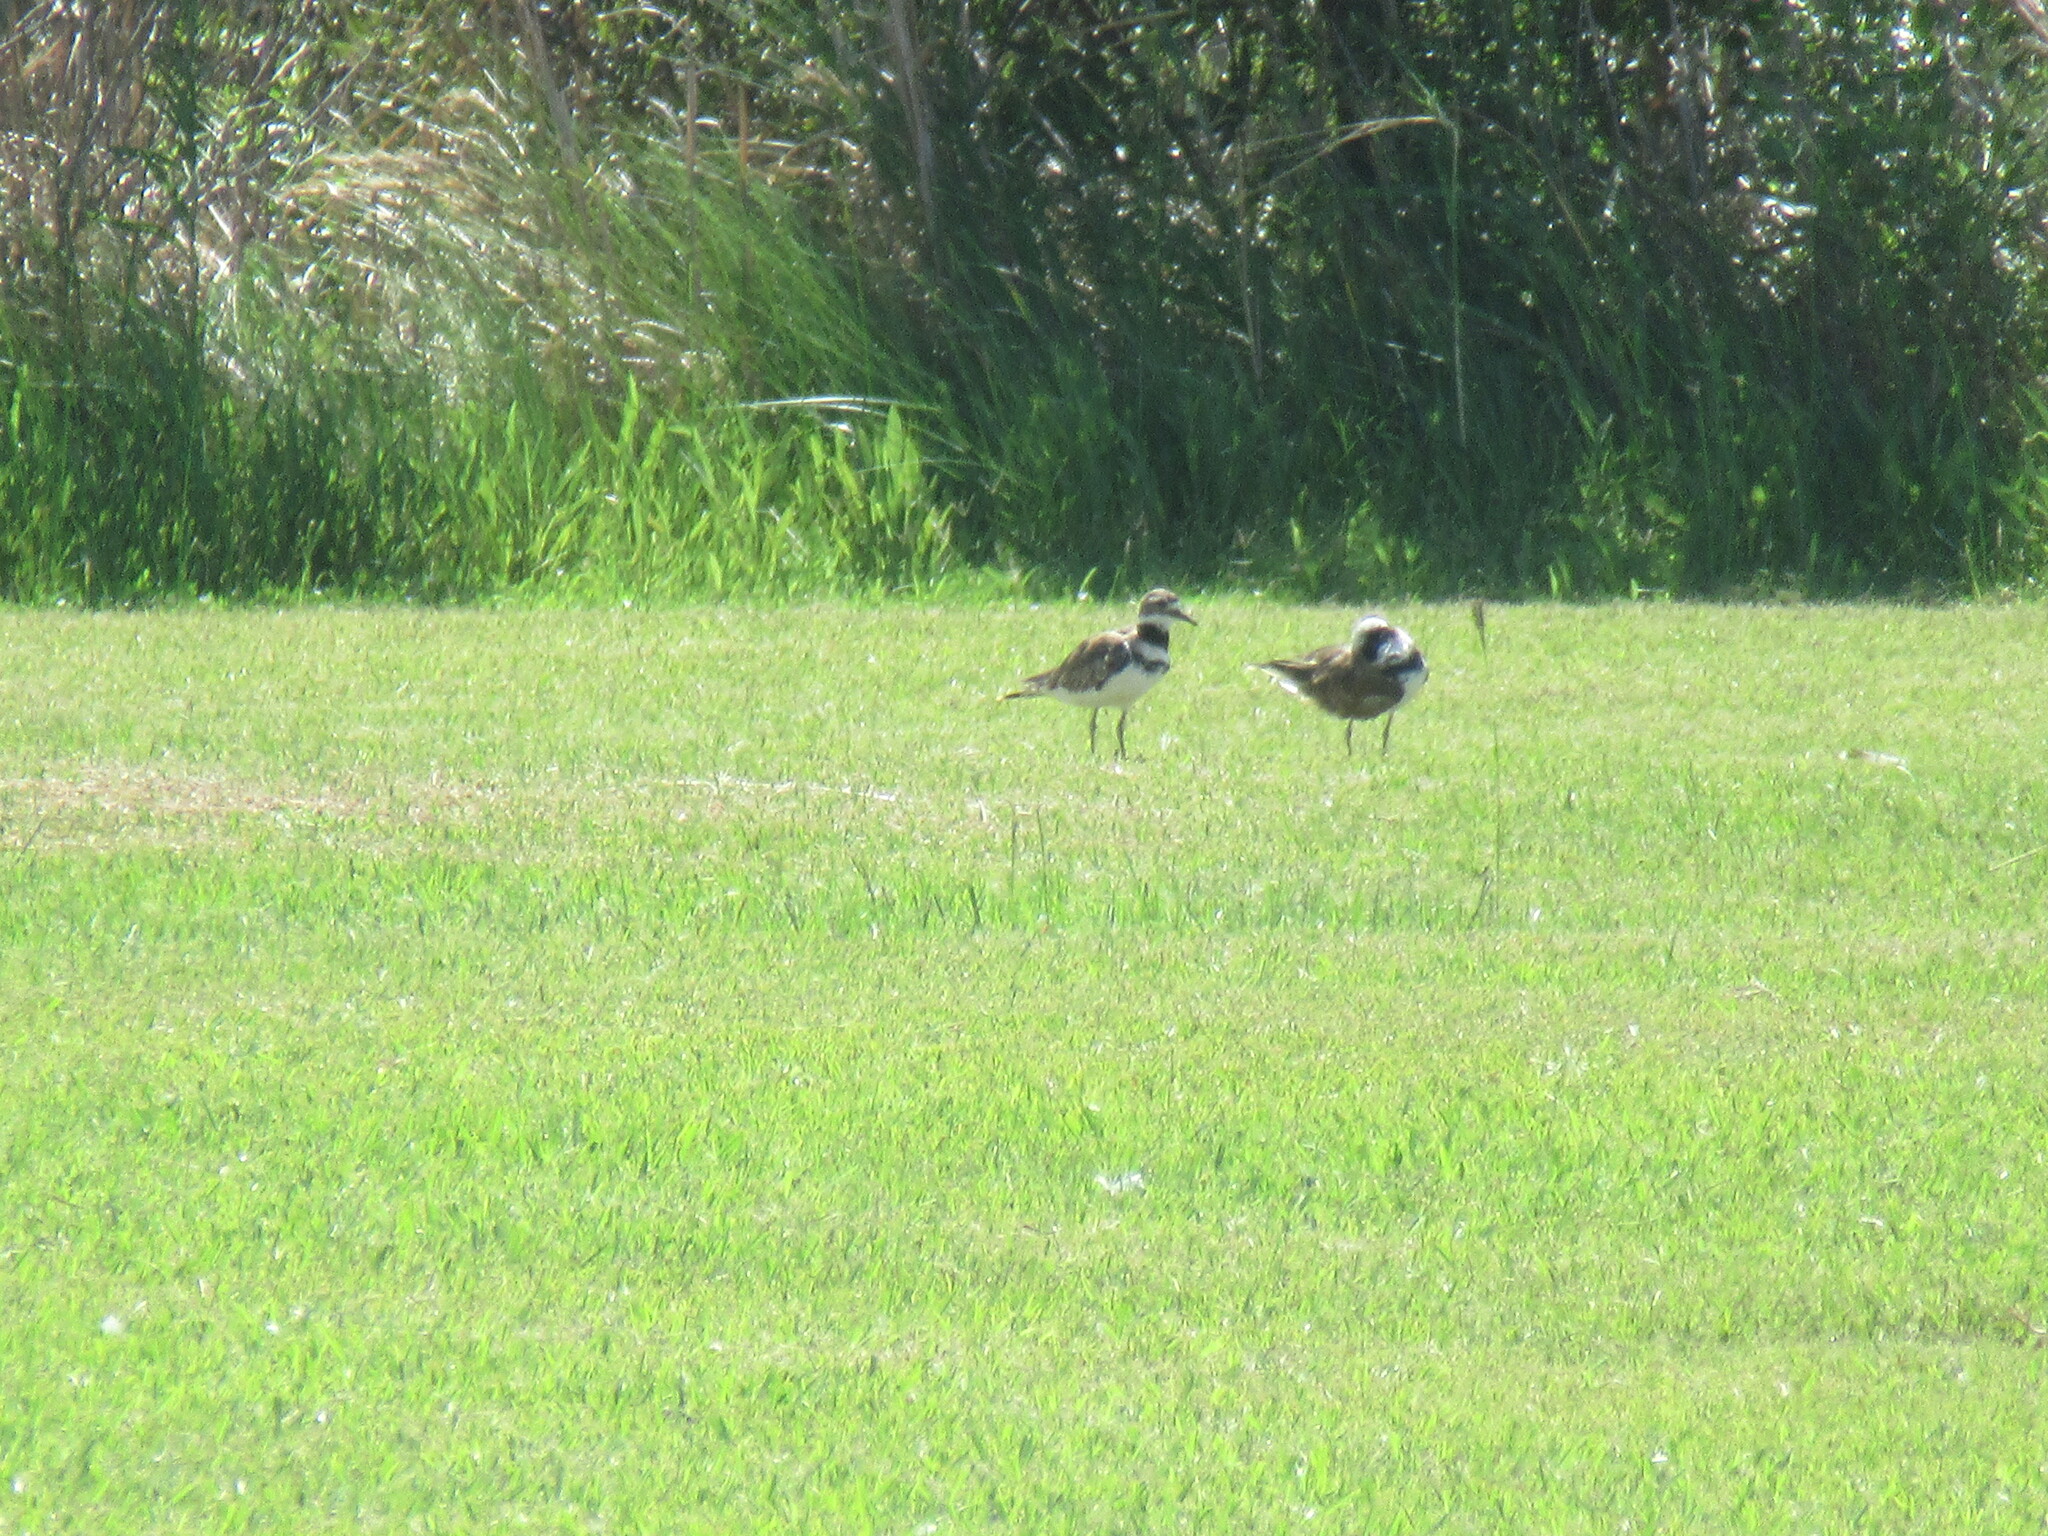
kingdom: Animalia
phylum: Chordata
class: Aves
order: Charadriiformes
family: Charadriidae
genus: Charadrius
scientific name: Charadrius vociferus
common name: Killdeer
